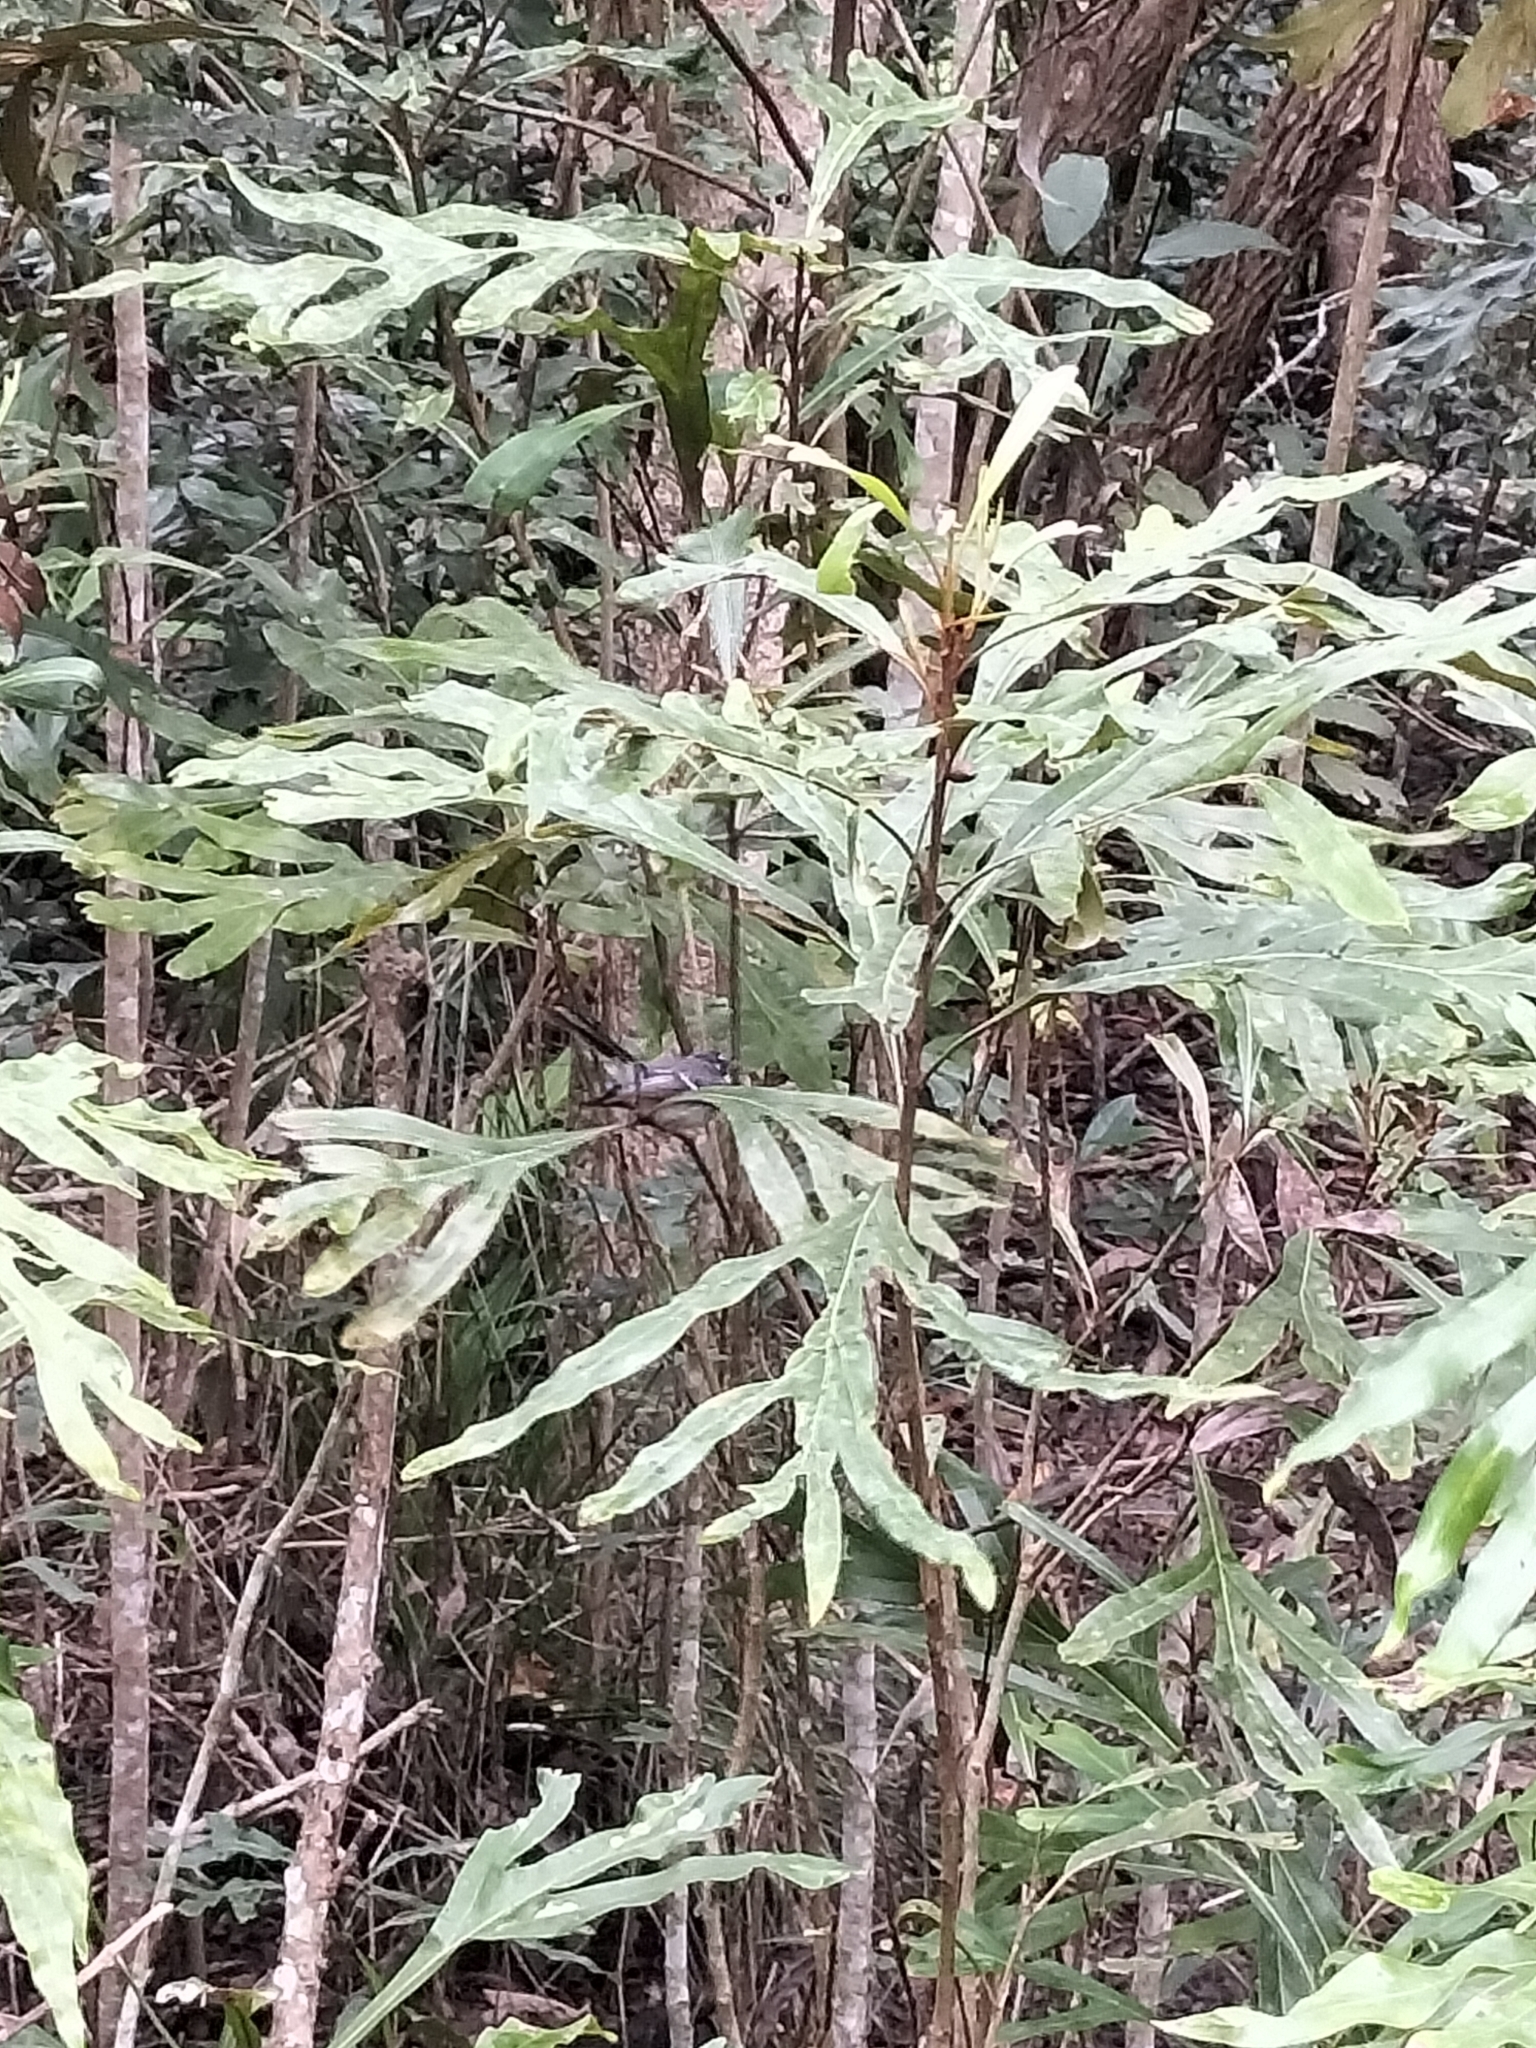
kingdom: Animalia
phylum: Chordata
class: Aves
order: Passeriformes
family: Rhipiduridae
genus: Rhipidura
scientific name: Rhipidura albiscapa
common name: Grey fantail
